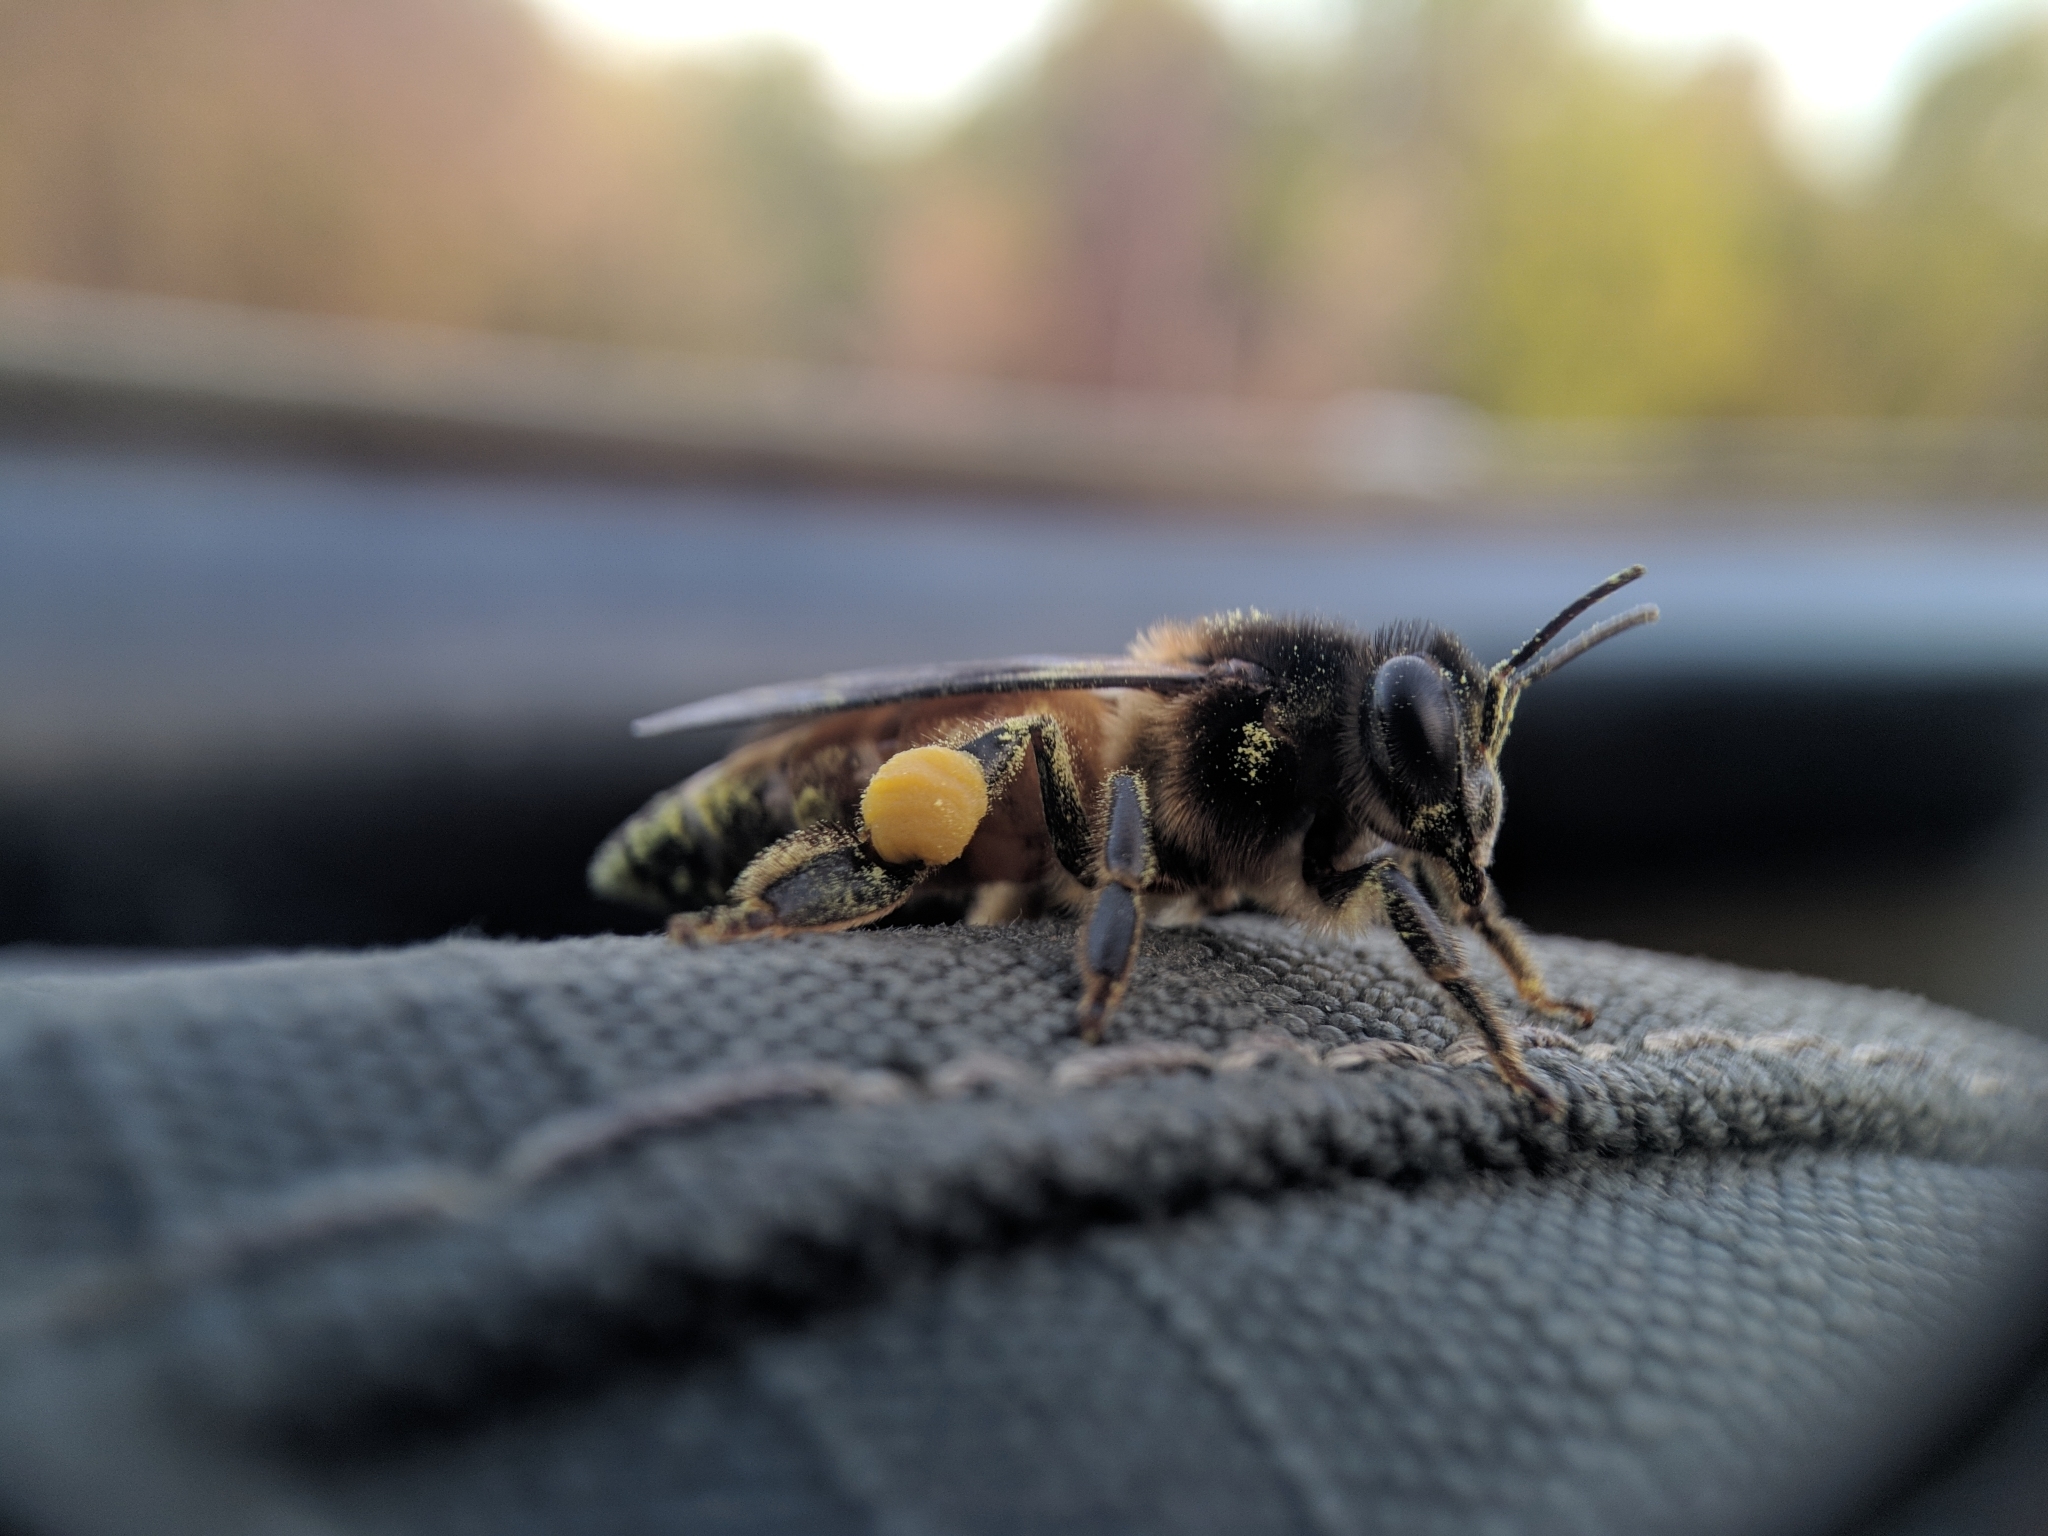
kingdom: Animalia
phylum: Arthropoda
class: Insecta
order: Hymenoptera
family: Apidae
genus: Apis
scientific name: Apis dorsata
